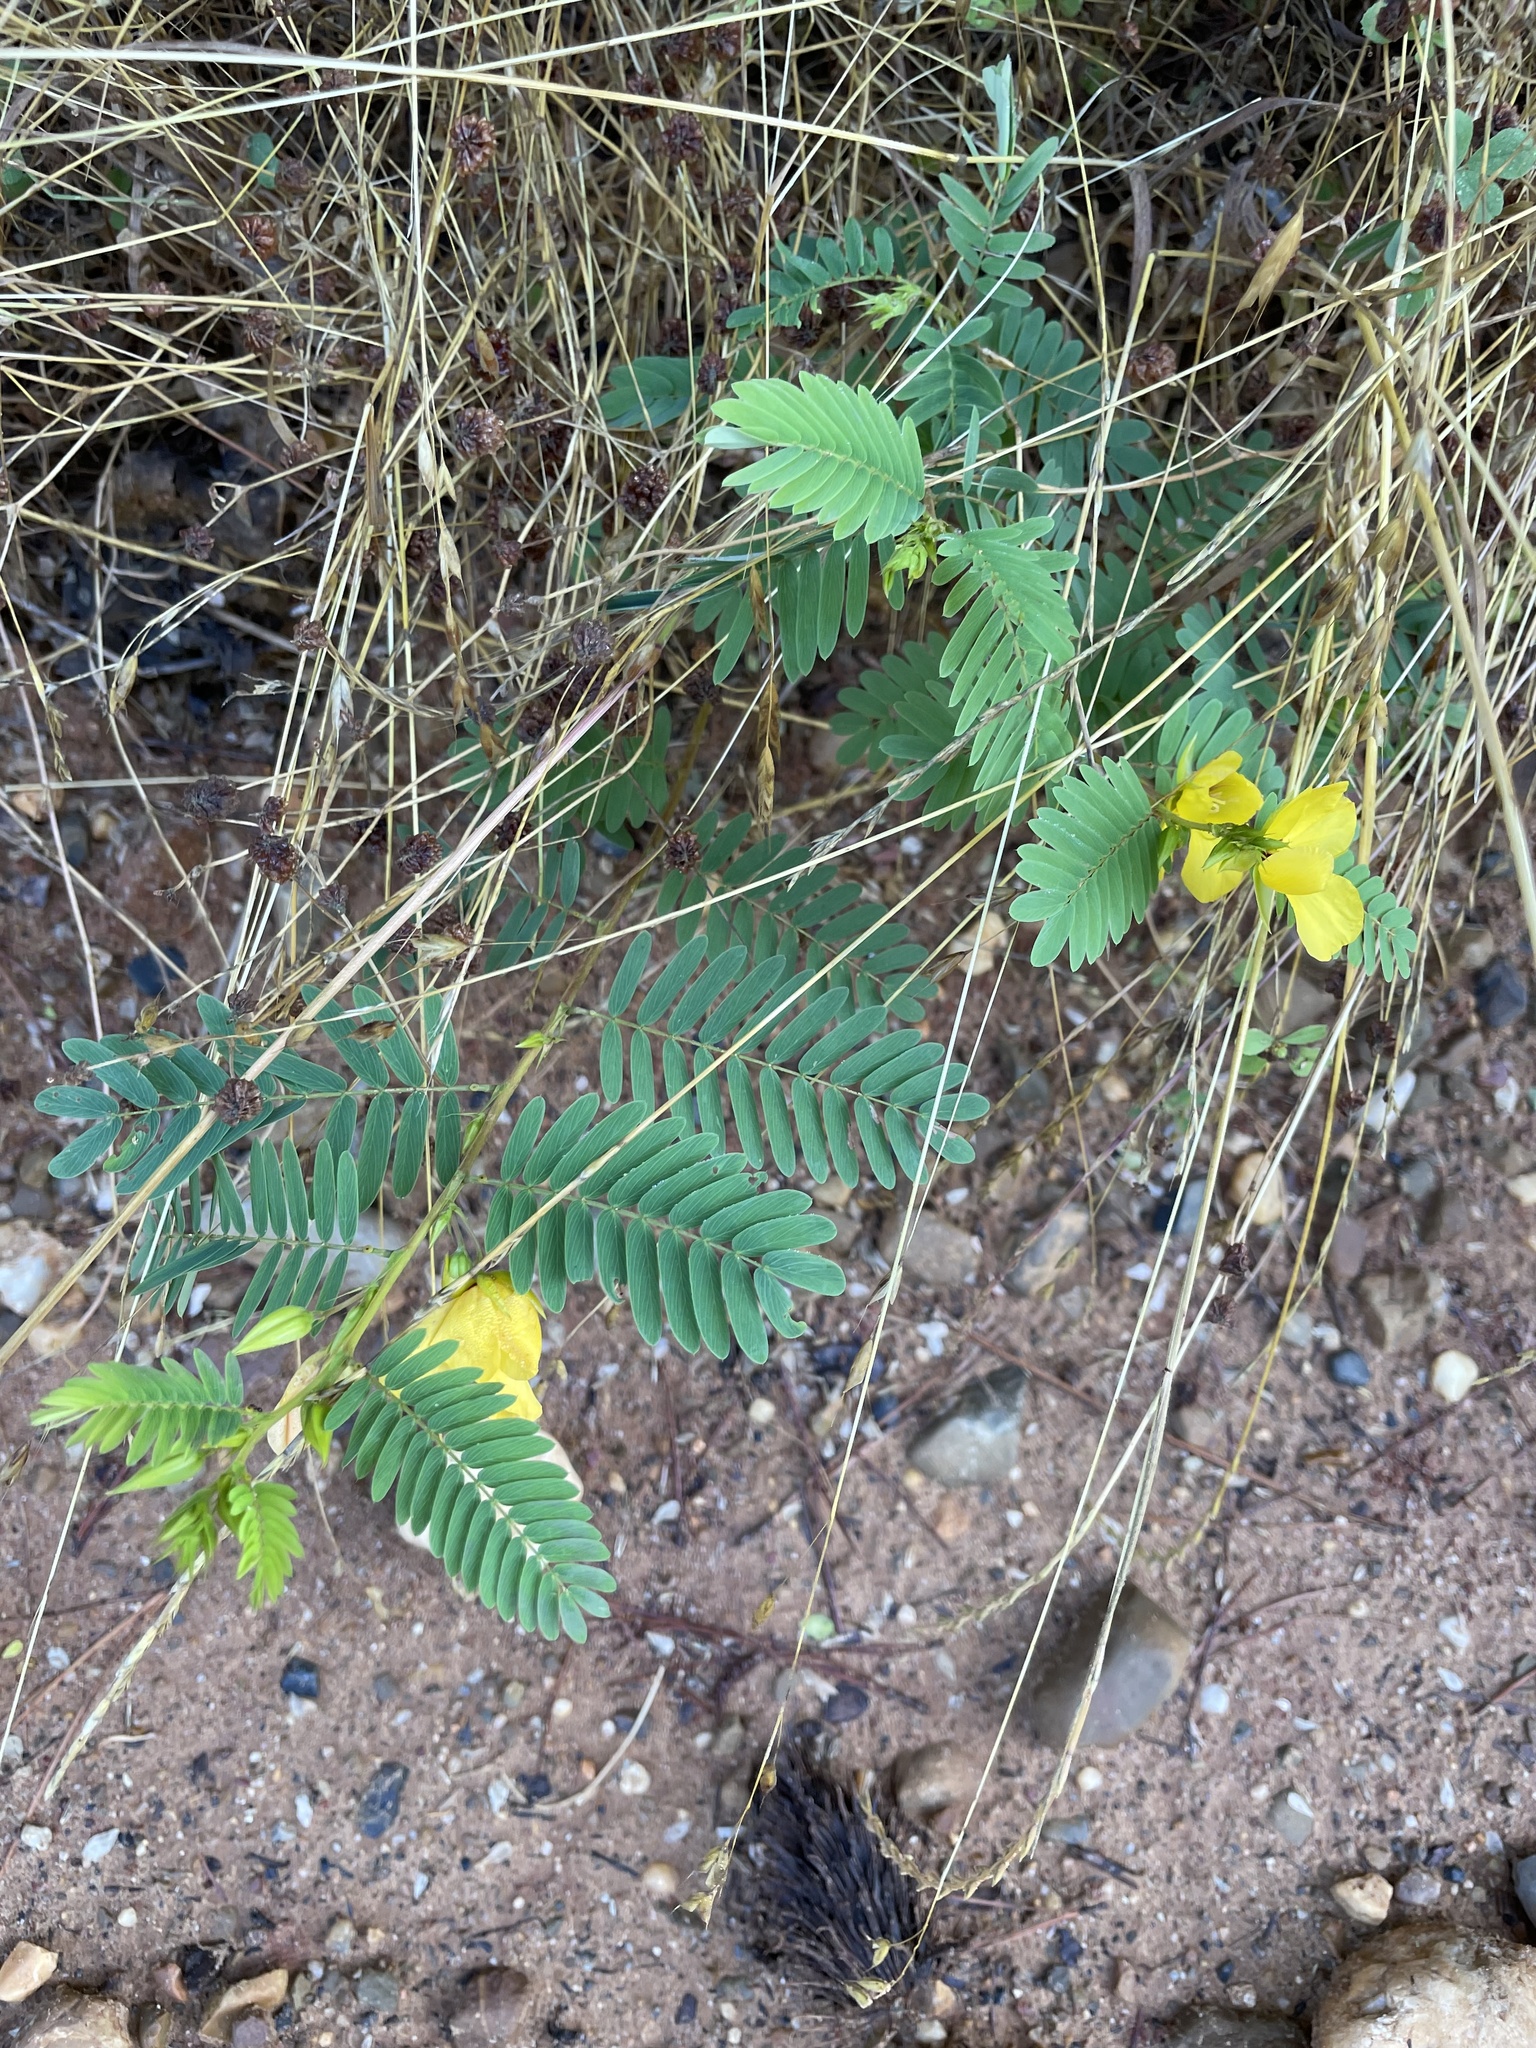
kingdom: Plantae
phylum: Tracheophyta
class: Magnoliopsida
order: Fabales
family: Fabaceae
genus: Chamaecrista
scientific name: Chamaecrista fasciculata
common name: Golden cassia
